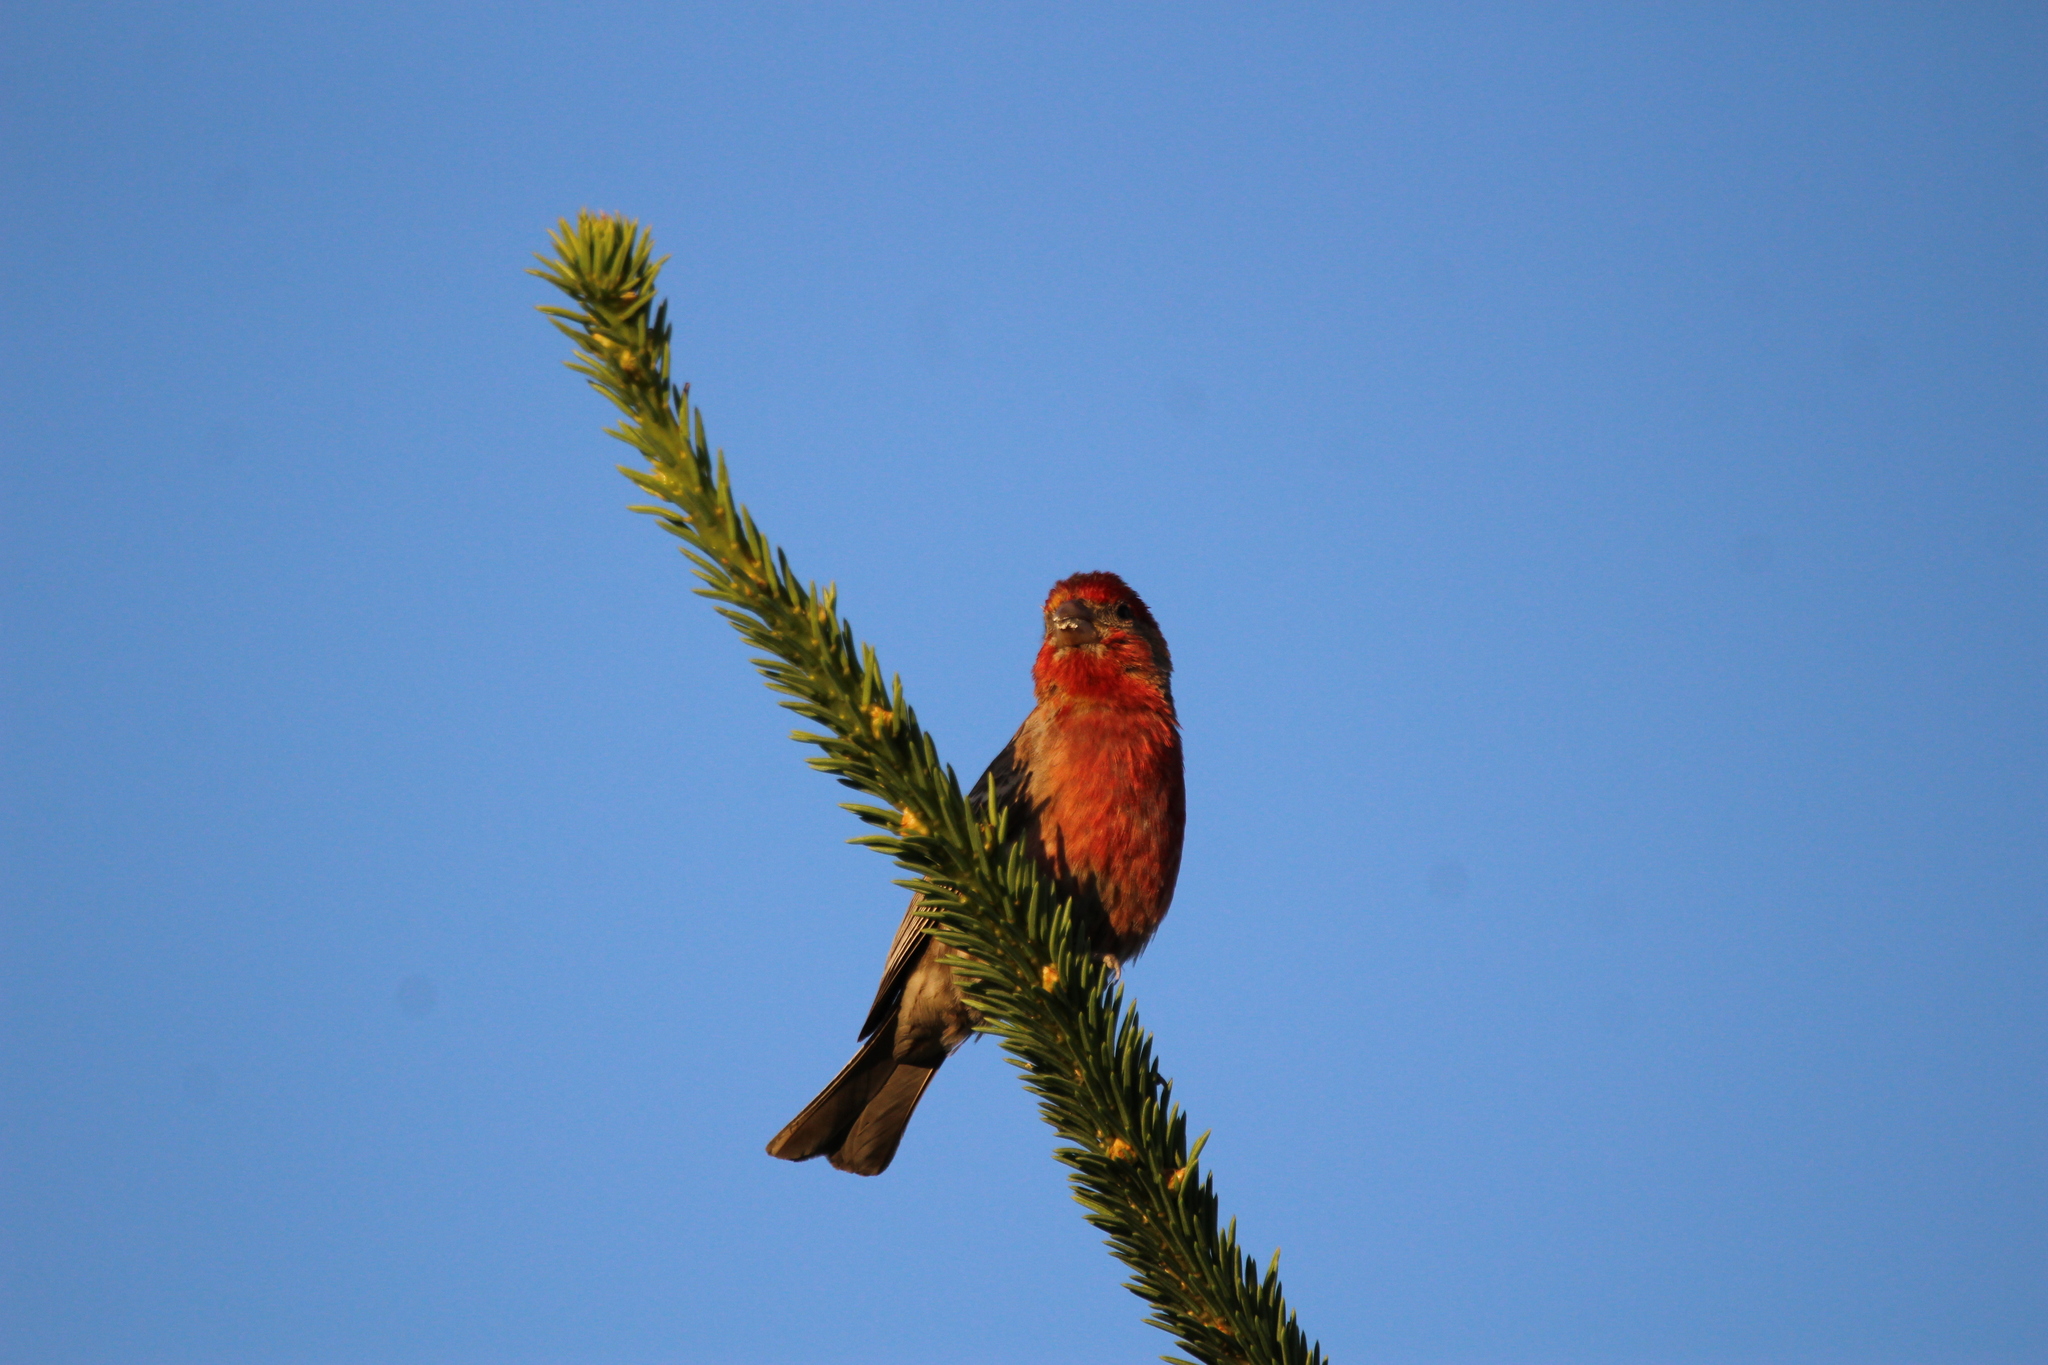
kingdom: Animalia
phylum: Chordata
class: Aves
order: Passeriformes
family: Fringillidae
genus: Haemorhous
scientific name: Haemorhous mexicanus
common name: House finch
